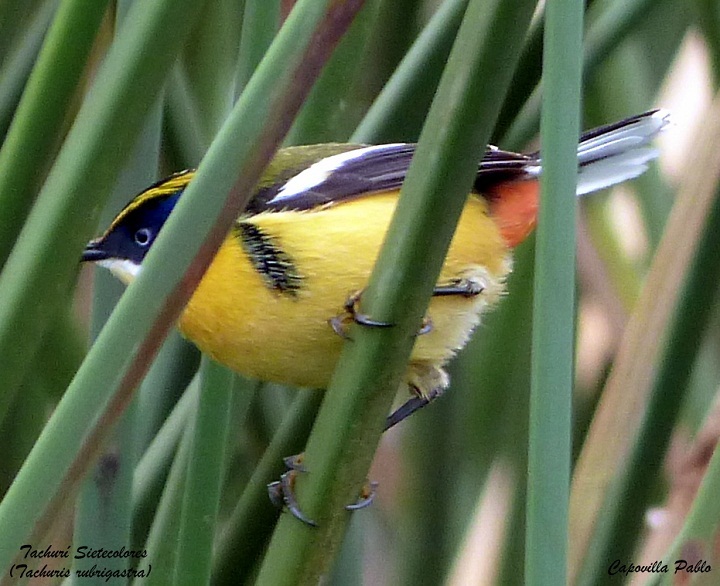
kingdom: Animalia
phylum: Chordata
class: Aves
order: Passeriformes
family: Tyrannidae
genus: Tachuris
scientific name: Tachuris rubrigastra
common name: Many-colored rush tyrant
